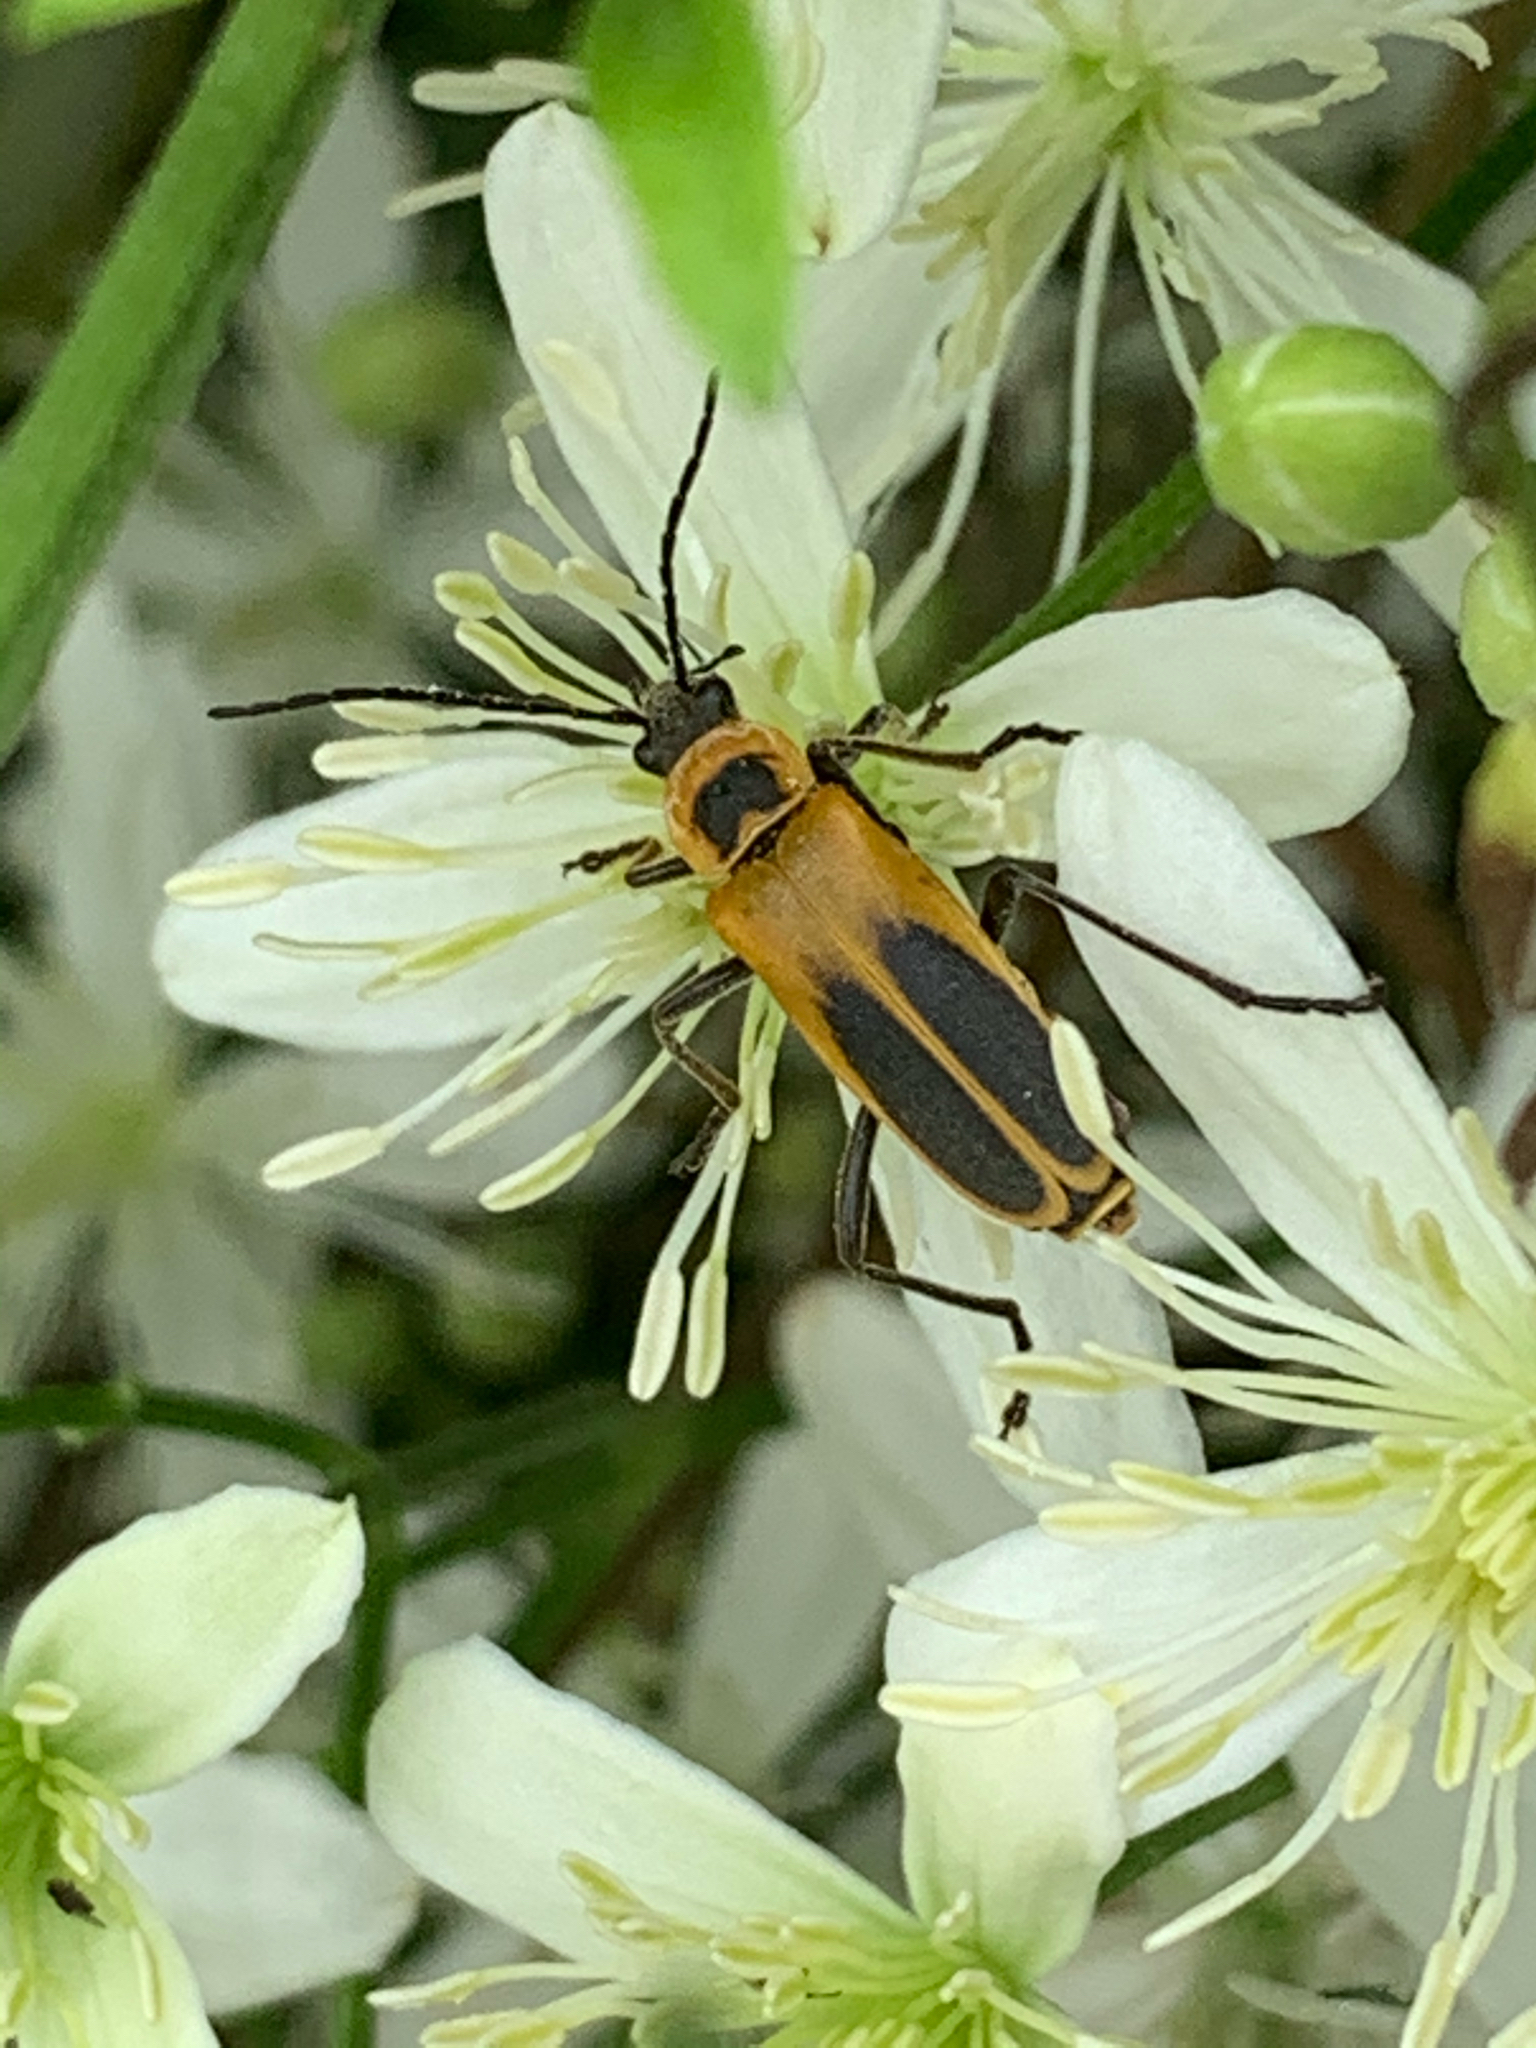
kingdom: Animalia
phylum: Arthropoda
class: Insecta
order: Coleoptera
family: Cantharidae
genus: Chauliognathus
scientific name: Chauliognathus pensylvanicus
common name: Goldenrod soldier beetle
